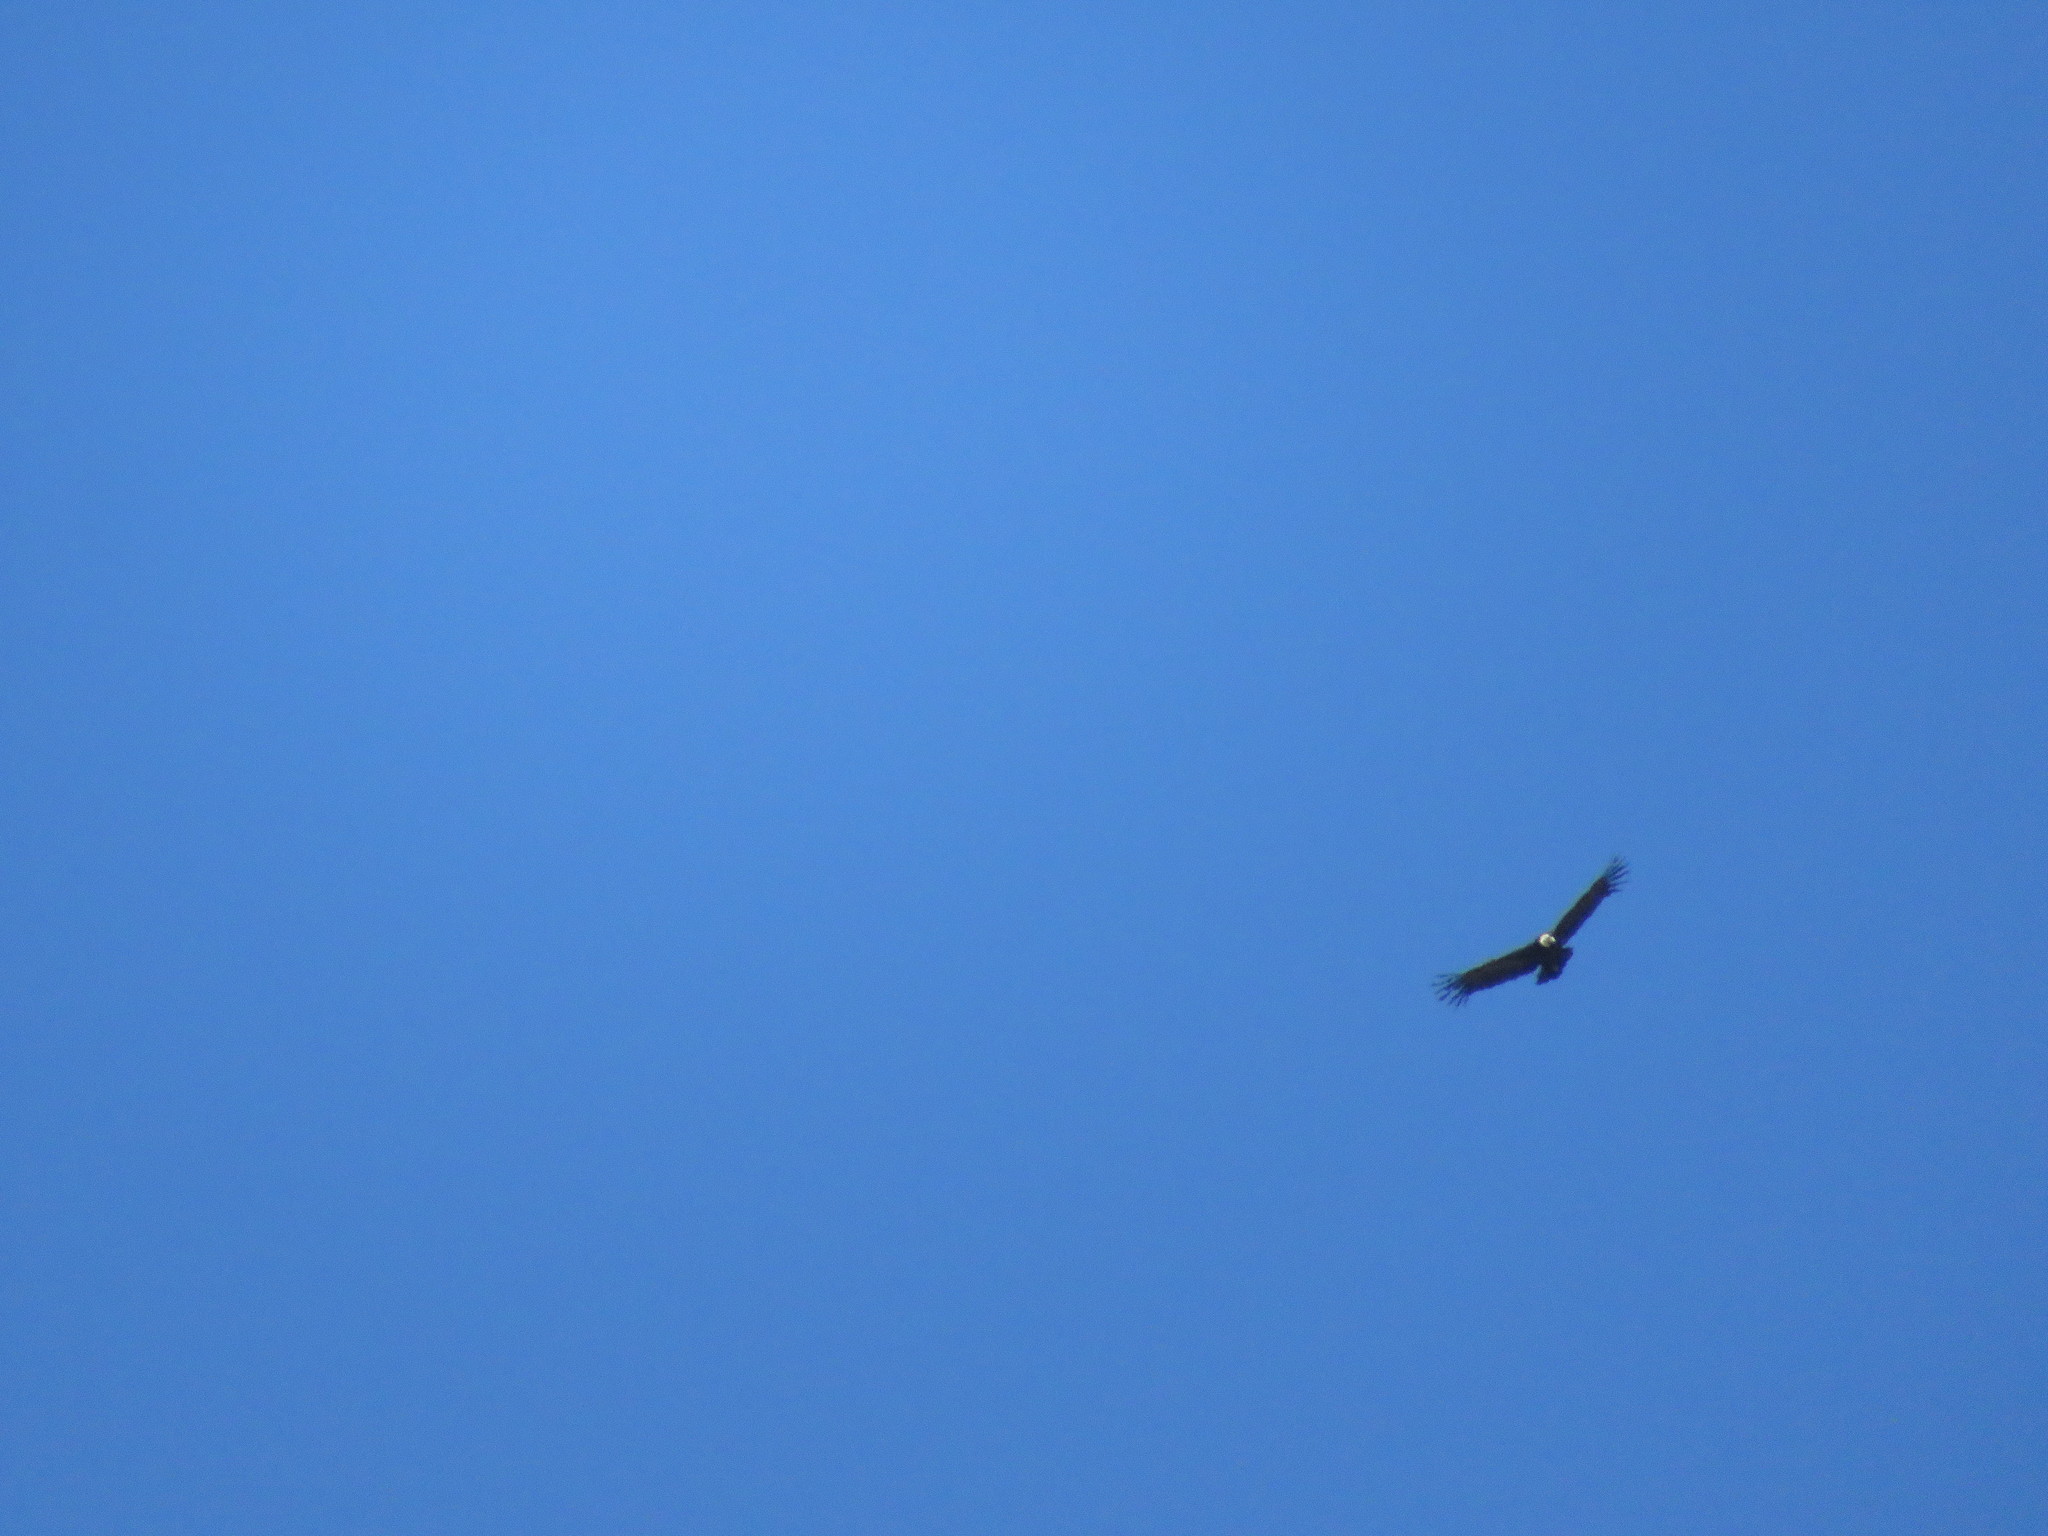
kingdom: Animalia
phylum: Chordata
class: Aves
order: Accipitriformes
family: Cathartidae
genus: Vultur
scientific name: Vultur gryphus
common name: Andean condor
